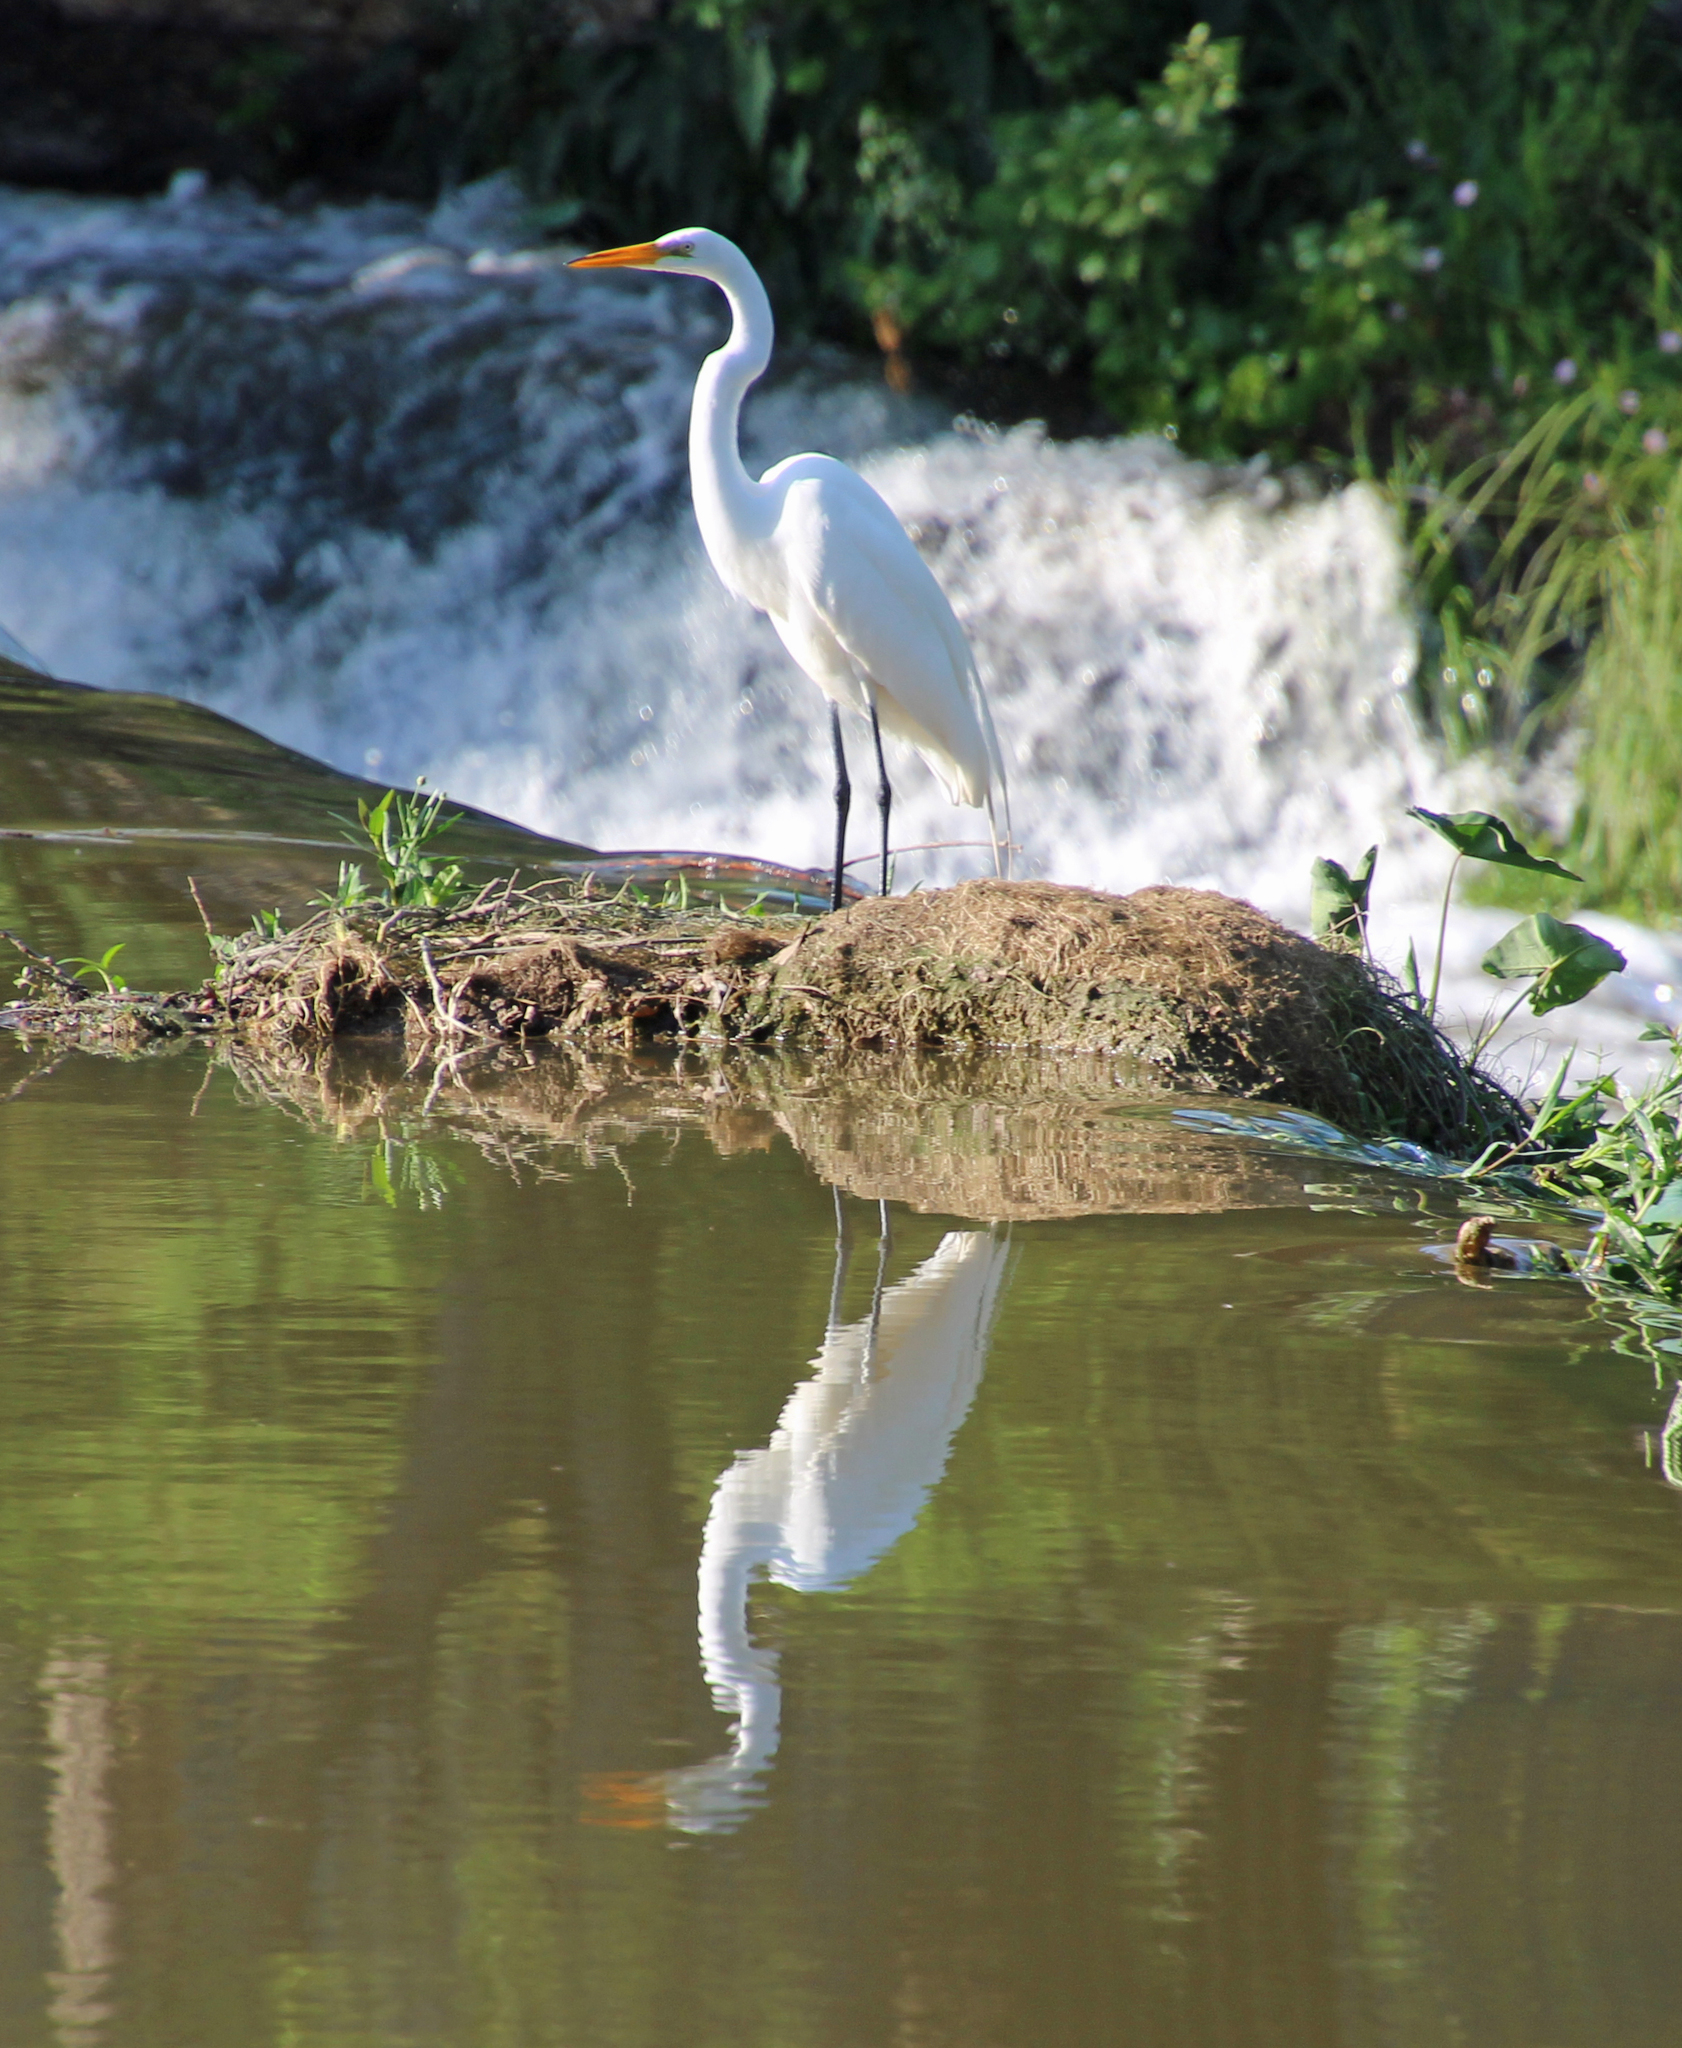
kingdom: Animalia
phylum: Chordata
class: Aves
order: Pelecaniformes
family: Ardeidae
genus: Ardea
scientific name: Ardea alba
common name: Great egret
